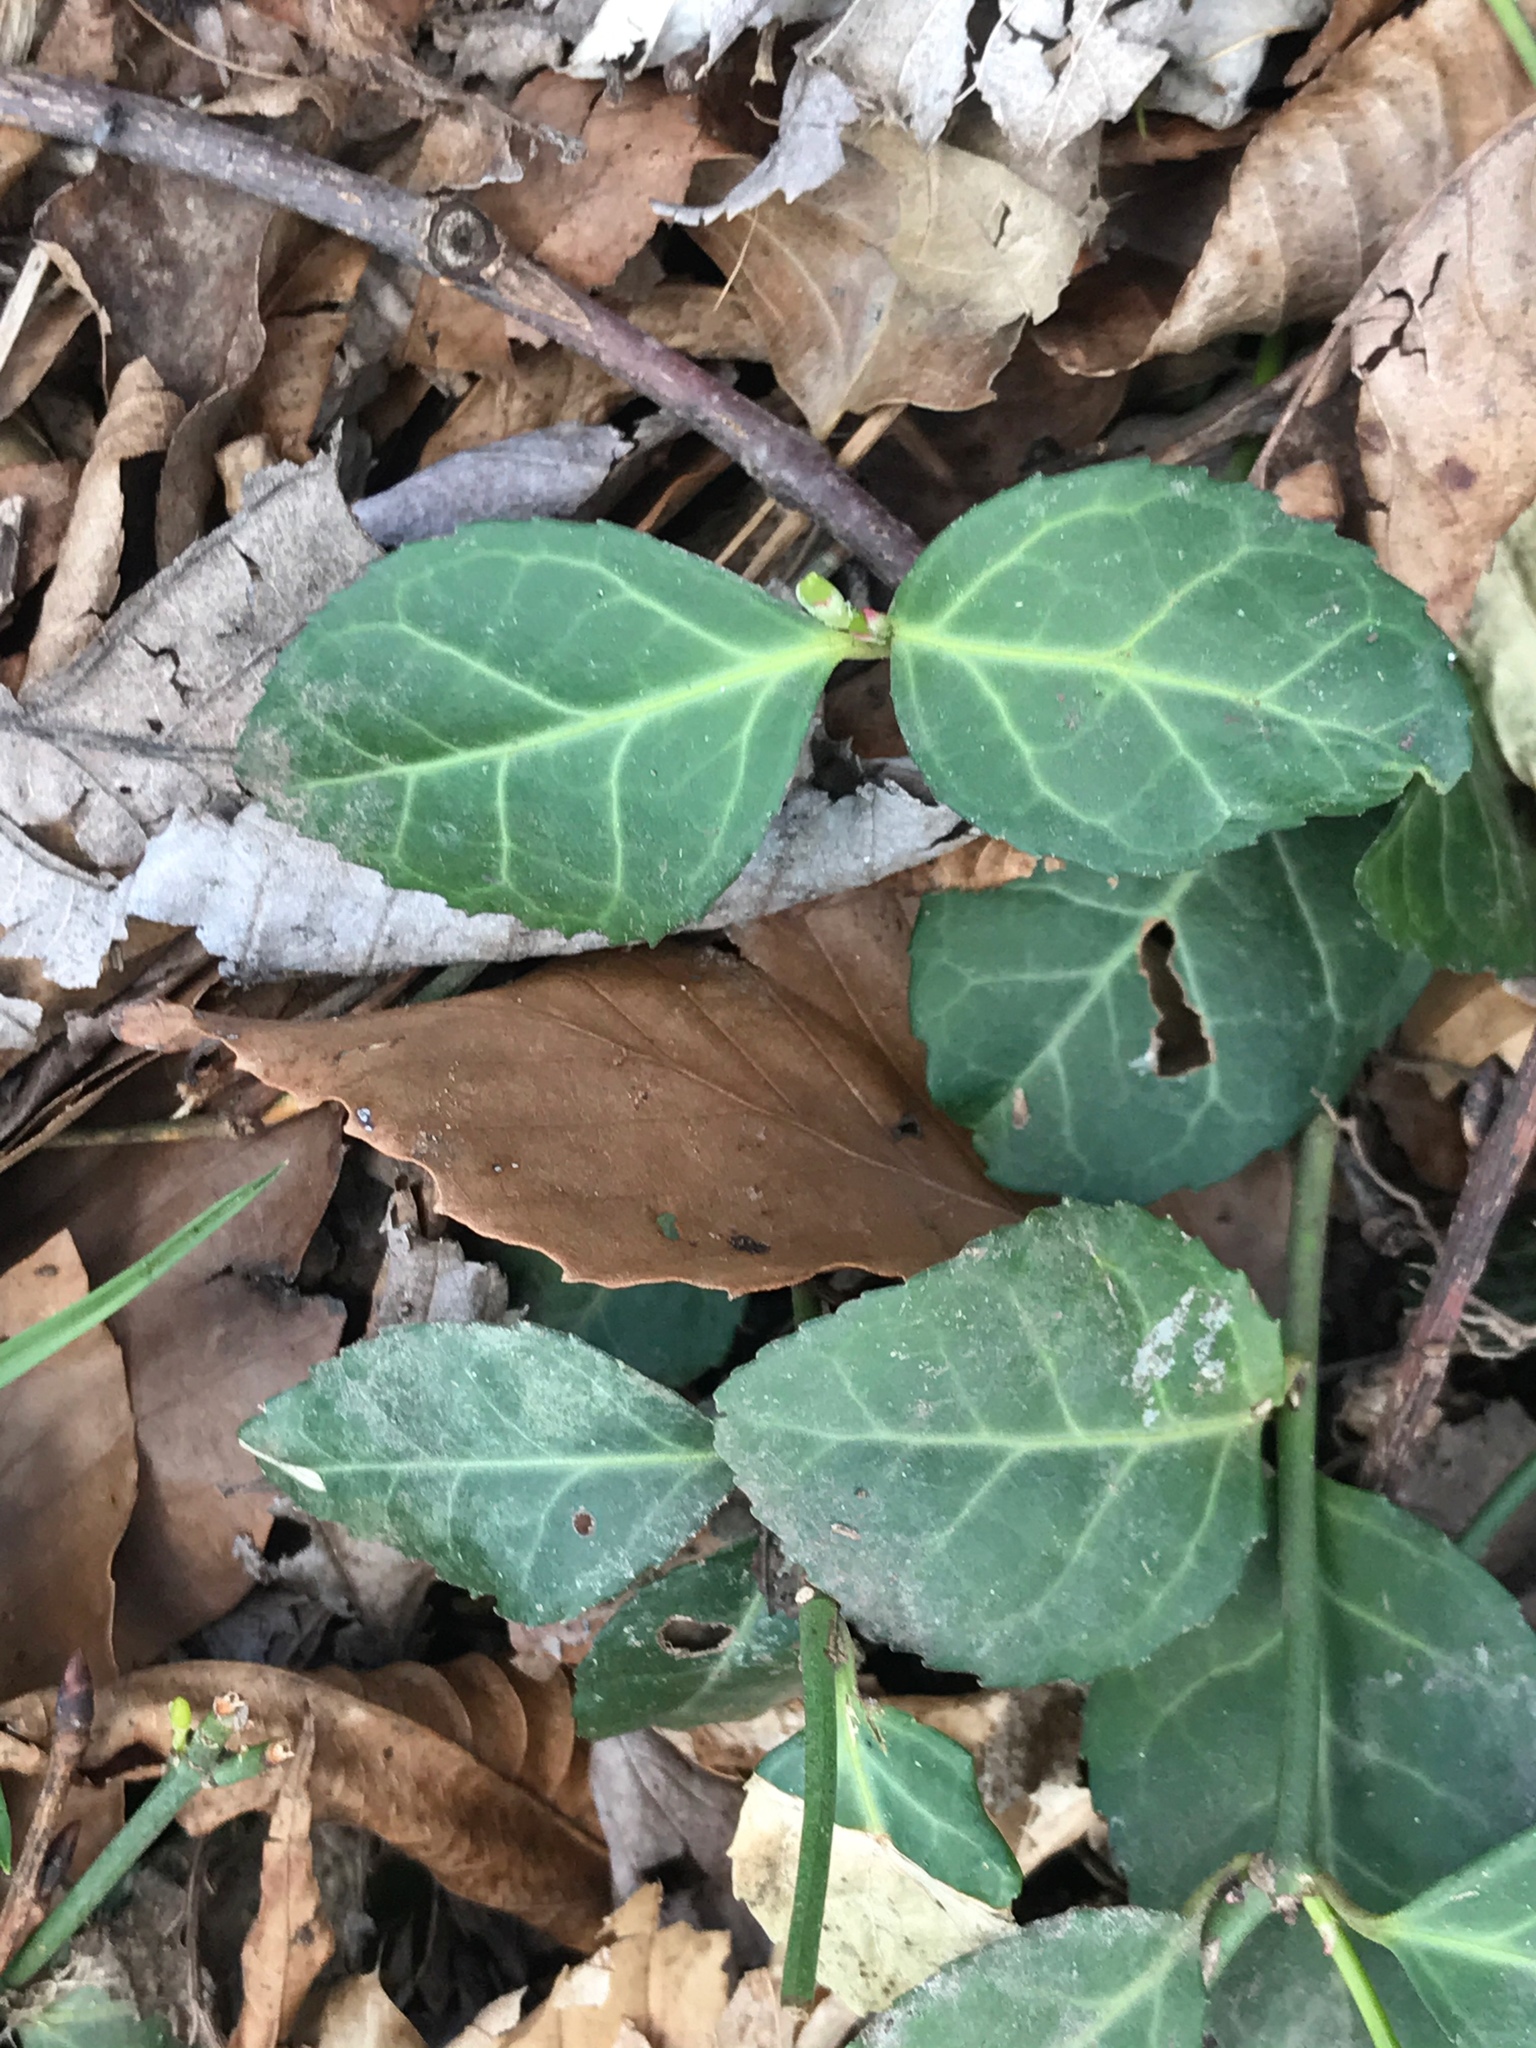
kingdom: Animalia
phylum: Chordata
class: Testudines
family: Emydidae
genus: Trachemys
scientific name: Trachemys scripta
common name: Slider
